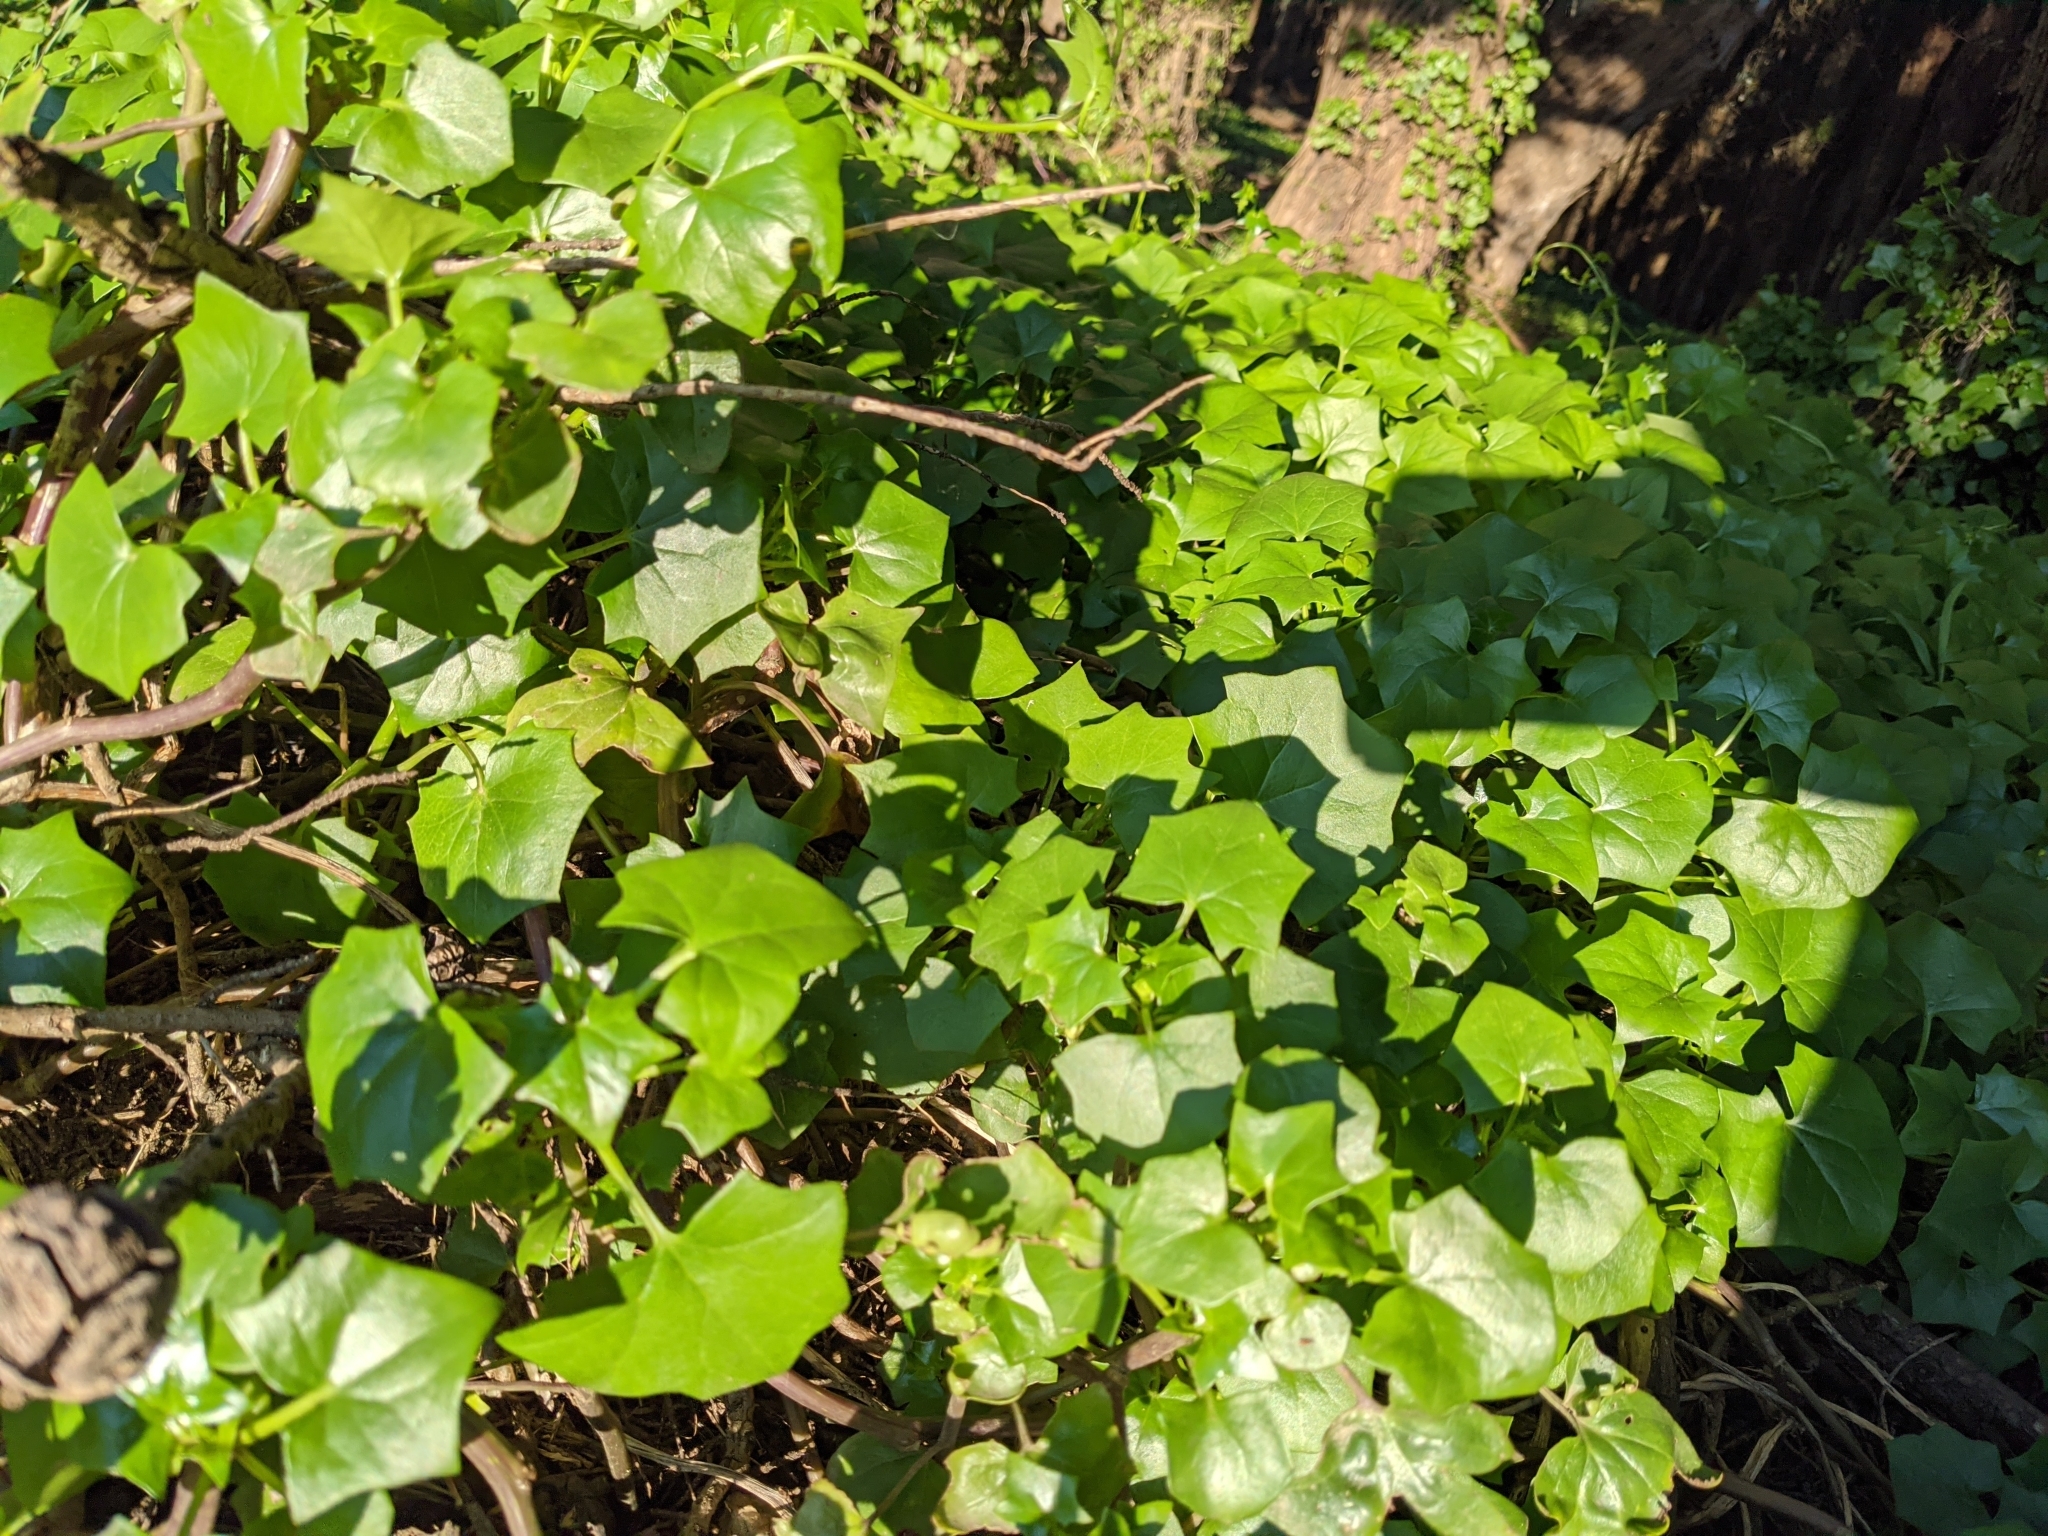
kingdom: Plantae
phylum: Tracheophyta
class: Magnoliopsida
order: Asterales
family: Asteraceae
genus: Delairea
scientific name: Delairea odorata
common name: Cape-ivy
